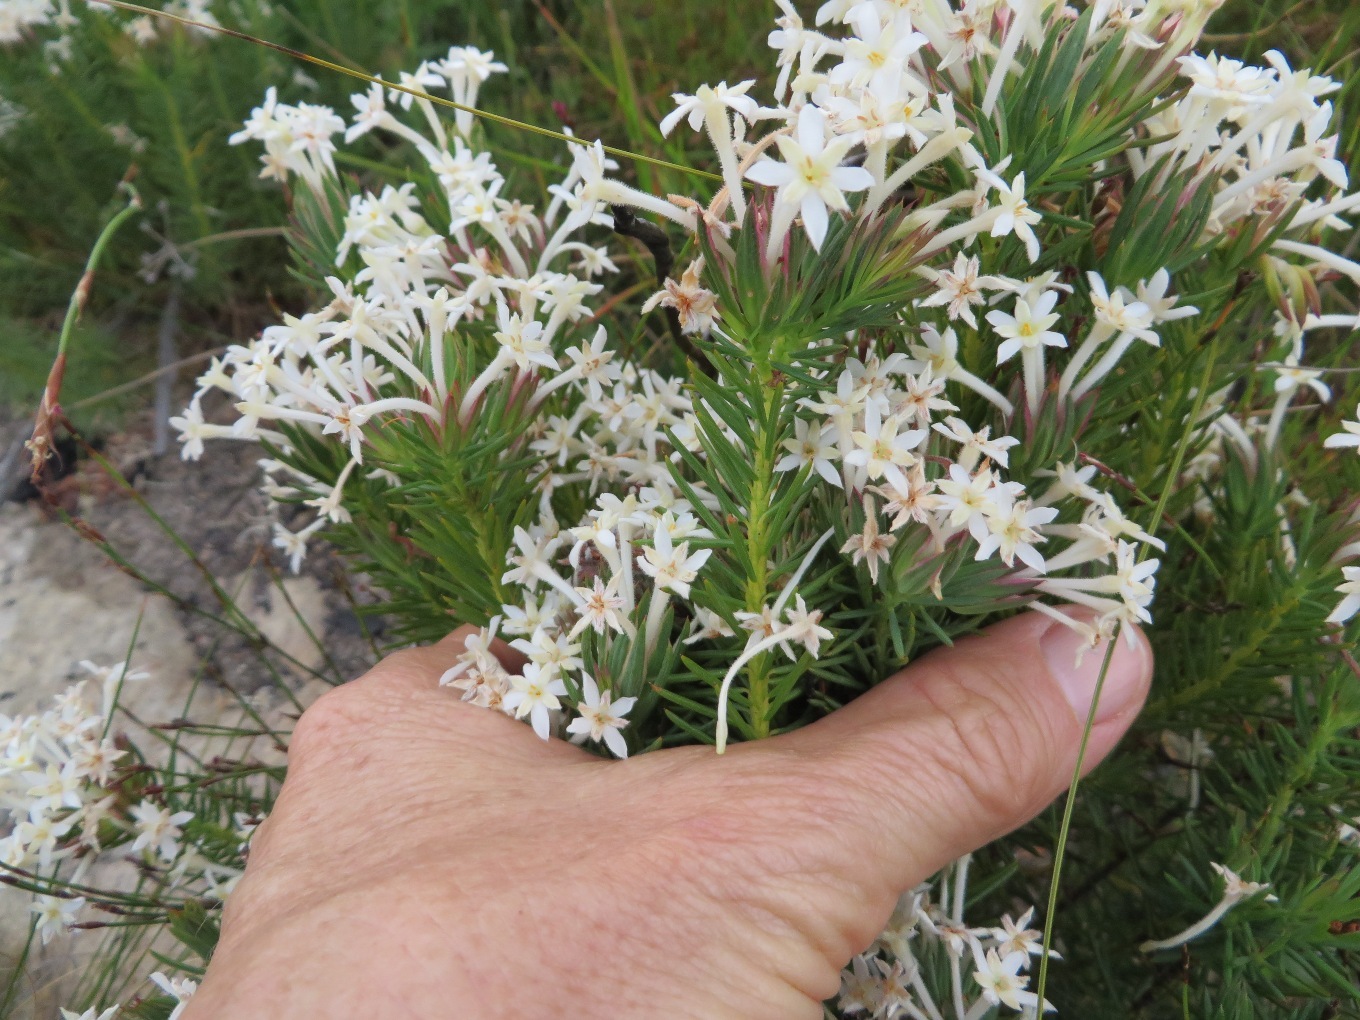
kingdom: Plantae
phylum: Tracheophyta
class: Magnoliopsida
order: Malvales
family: Thymelaeaceae
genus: Gnidia
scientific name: Gnidia pinifolia
